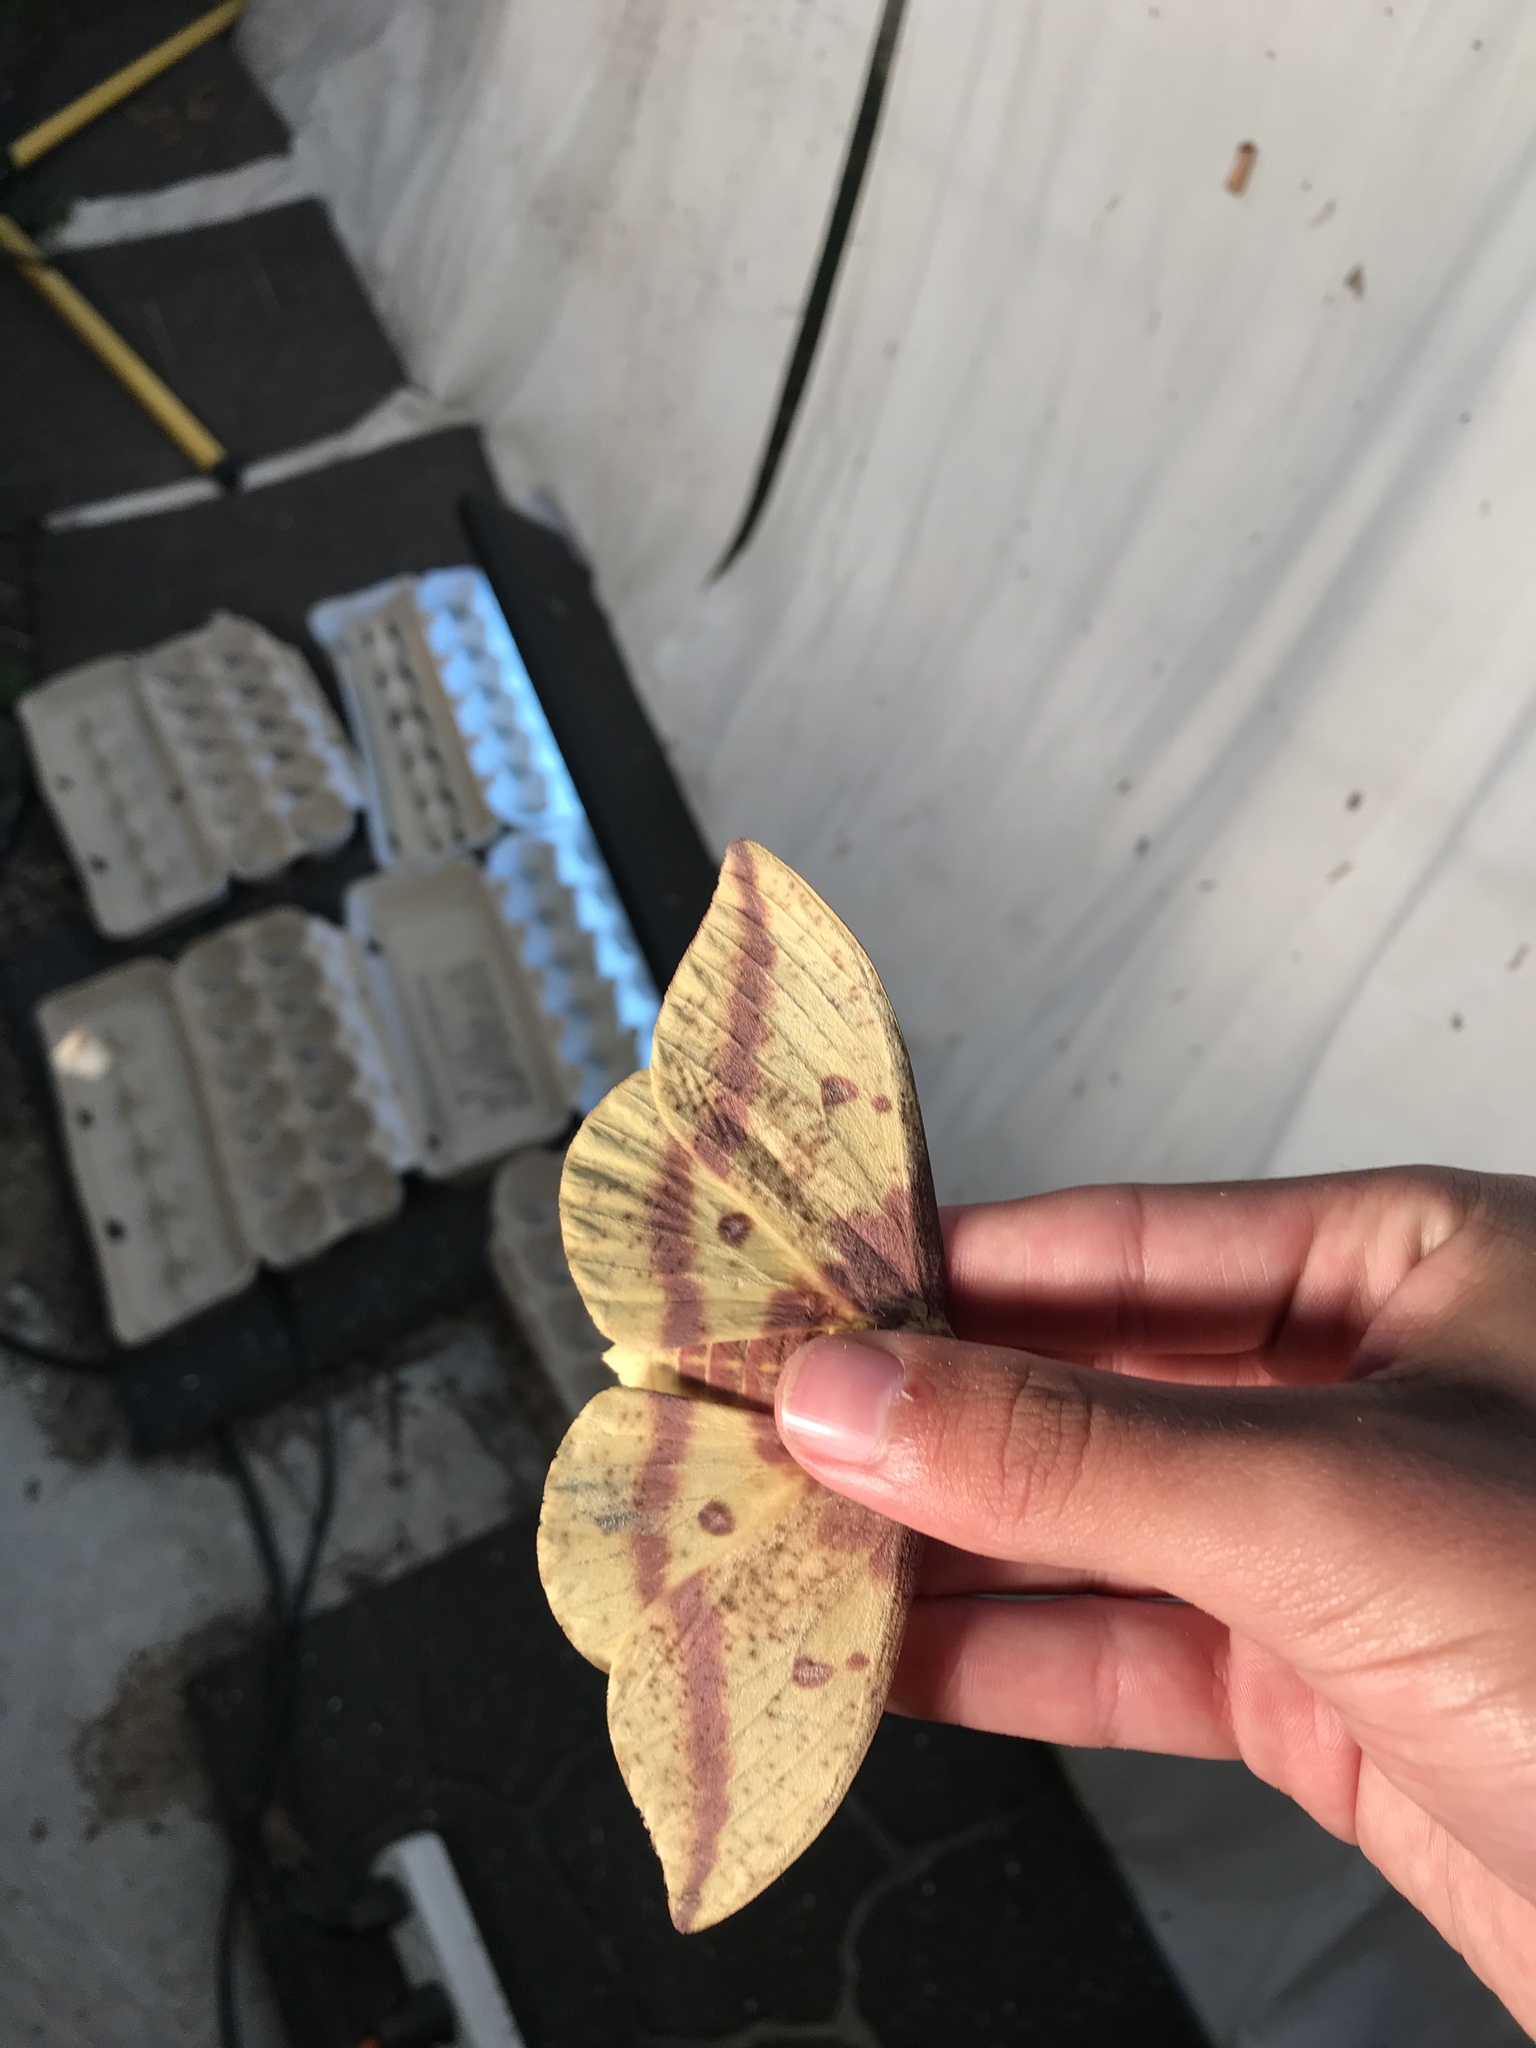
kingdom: Animalia
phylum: Arthropoda
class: Insecta
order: Lepidoptera
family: Saturniidae
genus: Eacles
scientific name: Eacles
